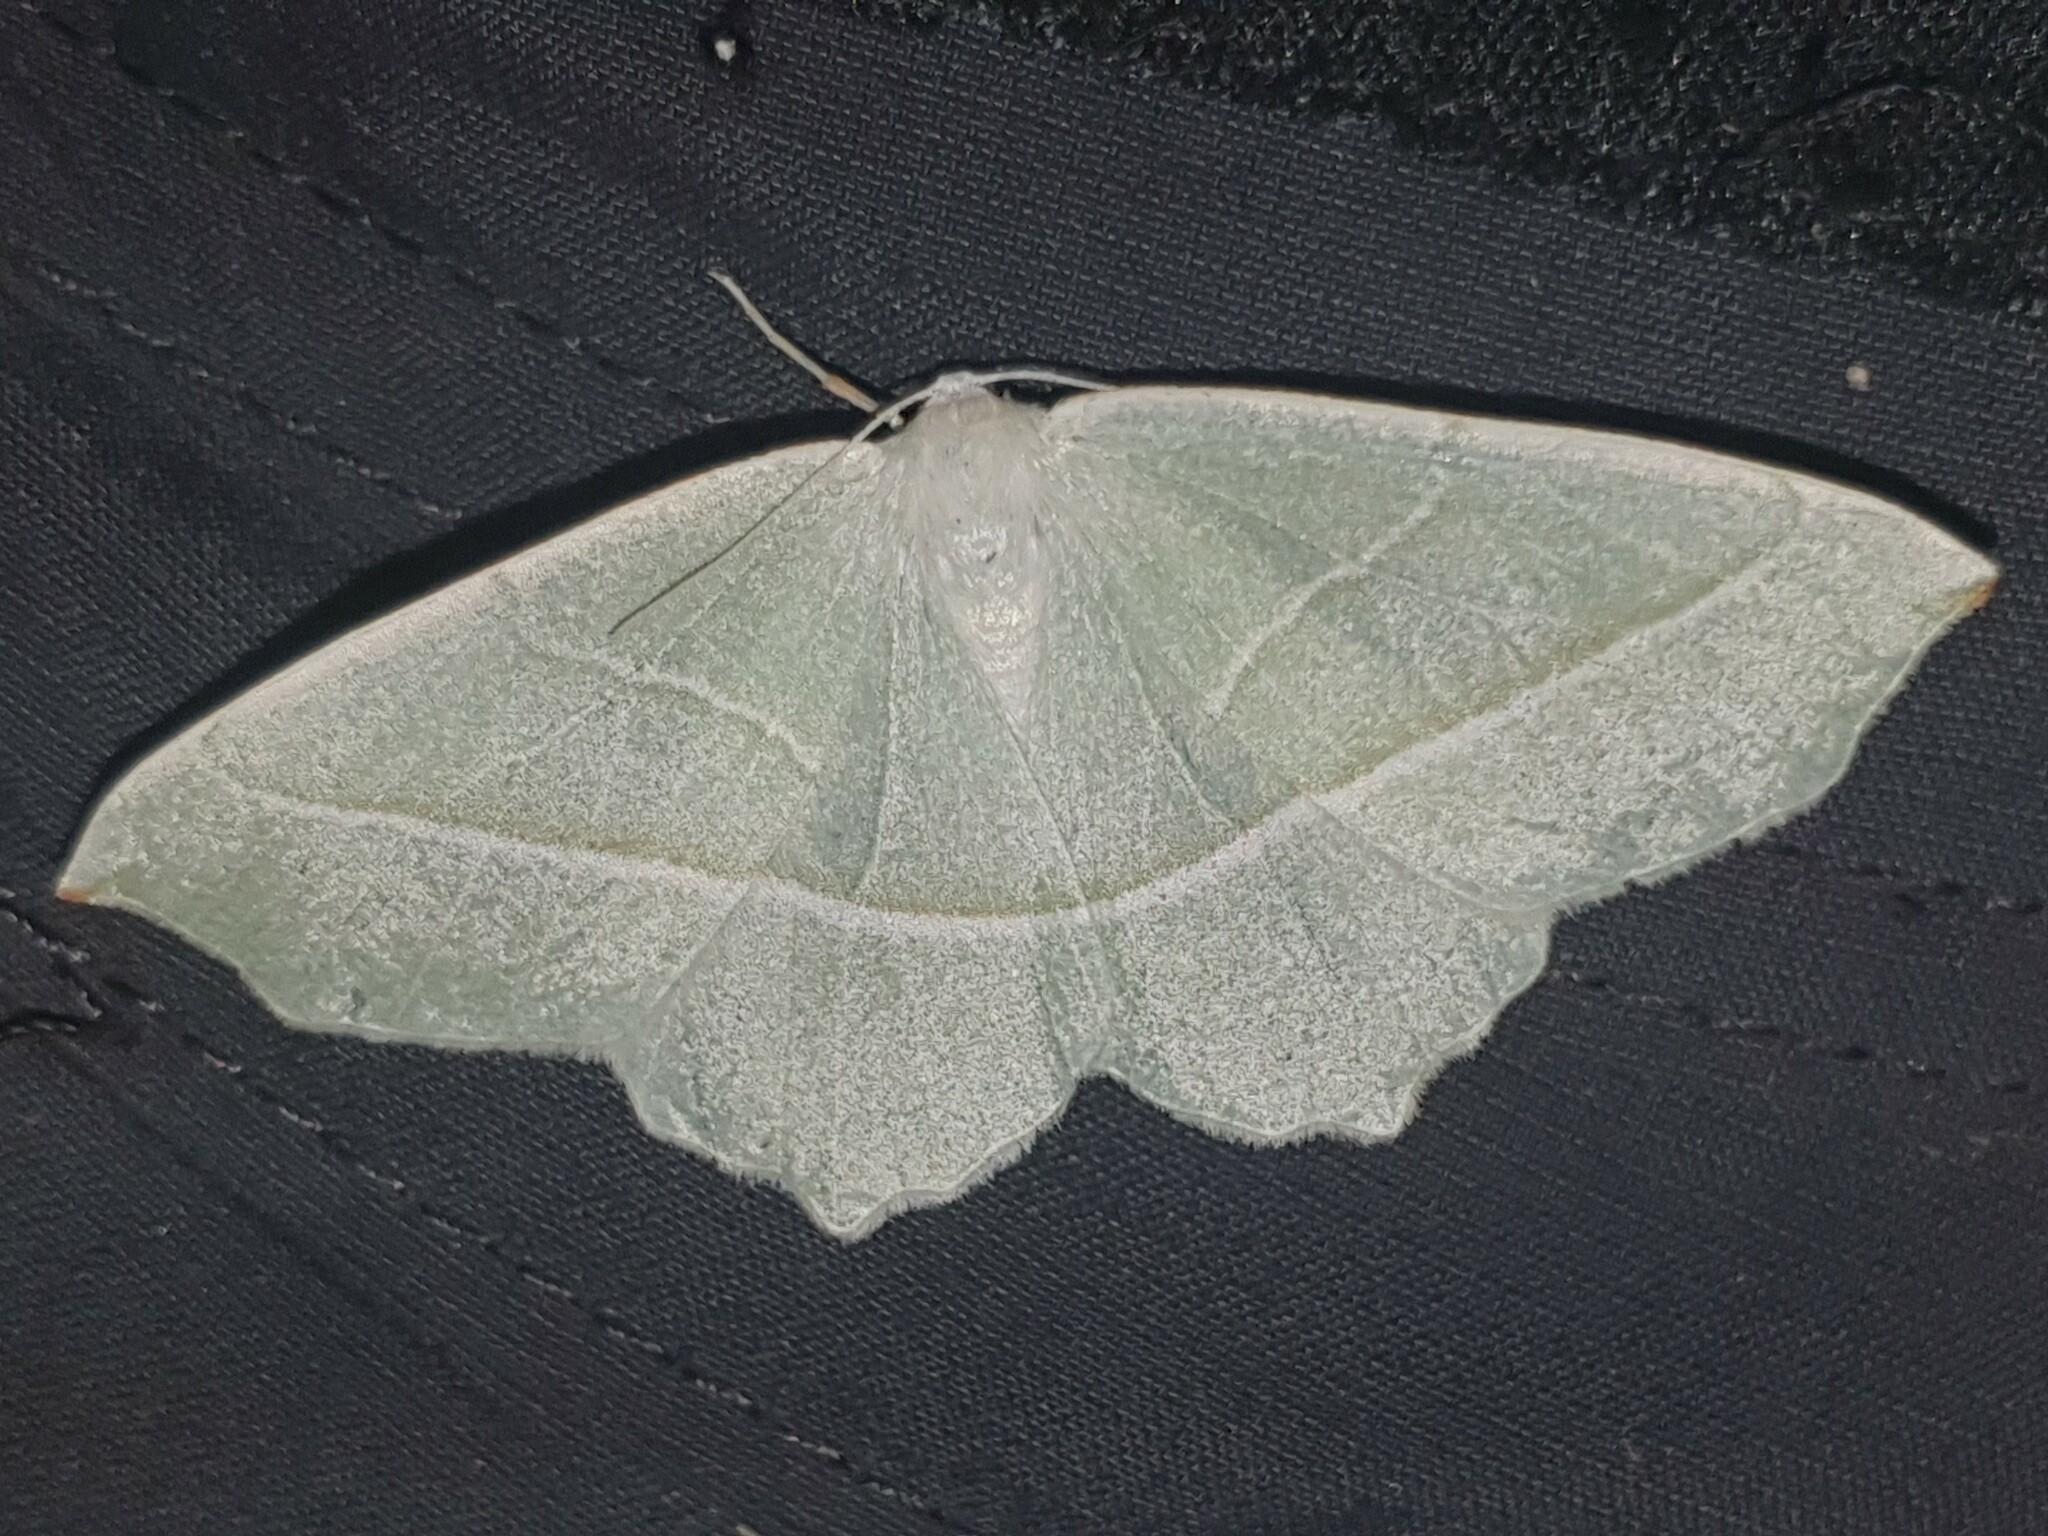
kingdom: Animalia
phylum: Arthropoda
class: Insecta
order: Lepidoptera
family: Geometridae
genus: Campaea
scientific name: Campaea margaritaria
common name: Light emerald
